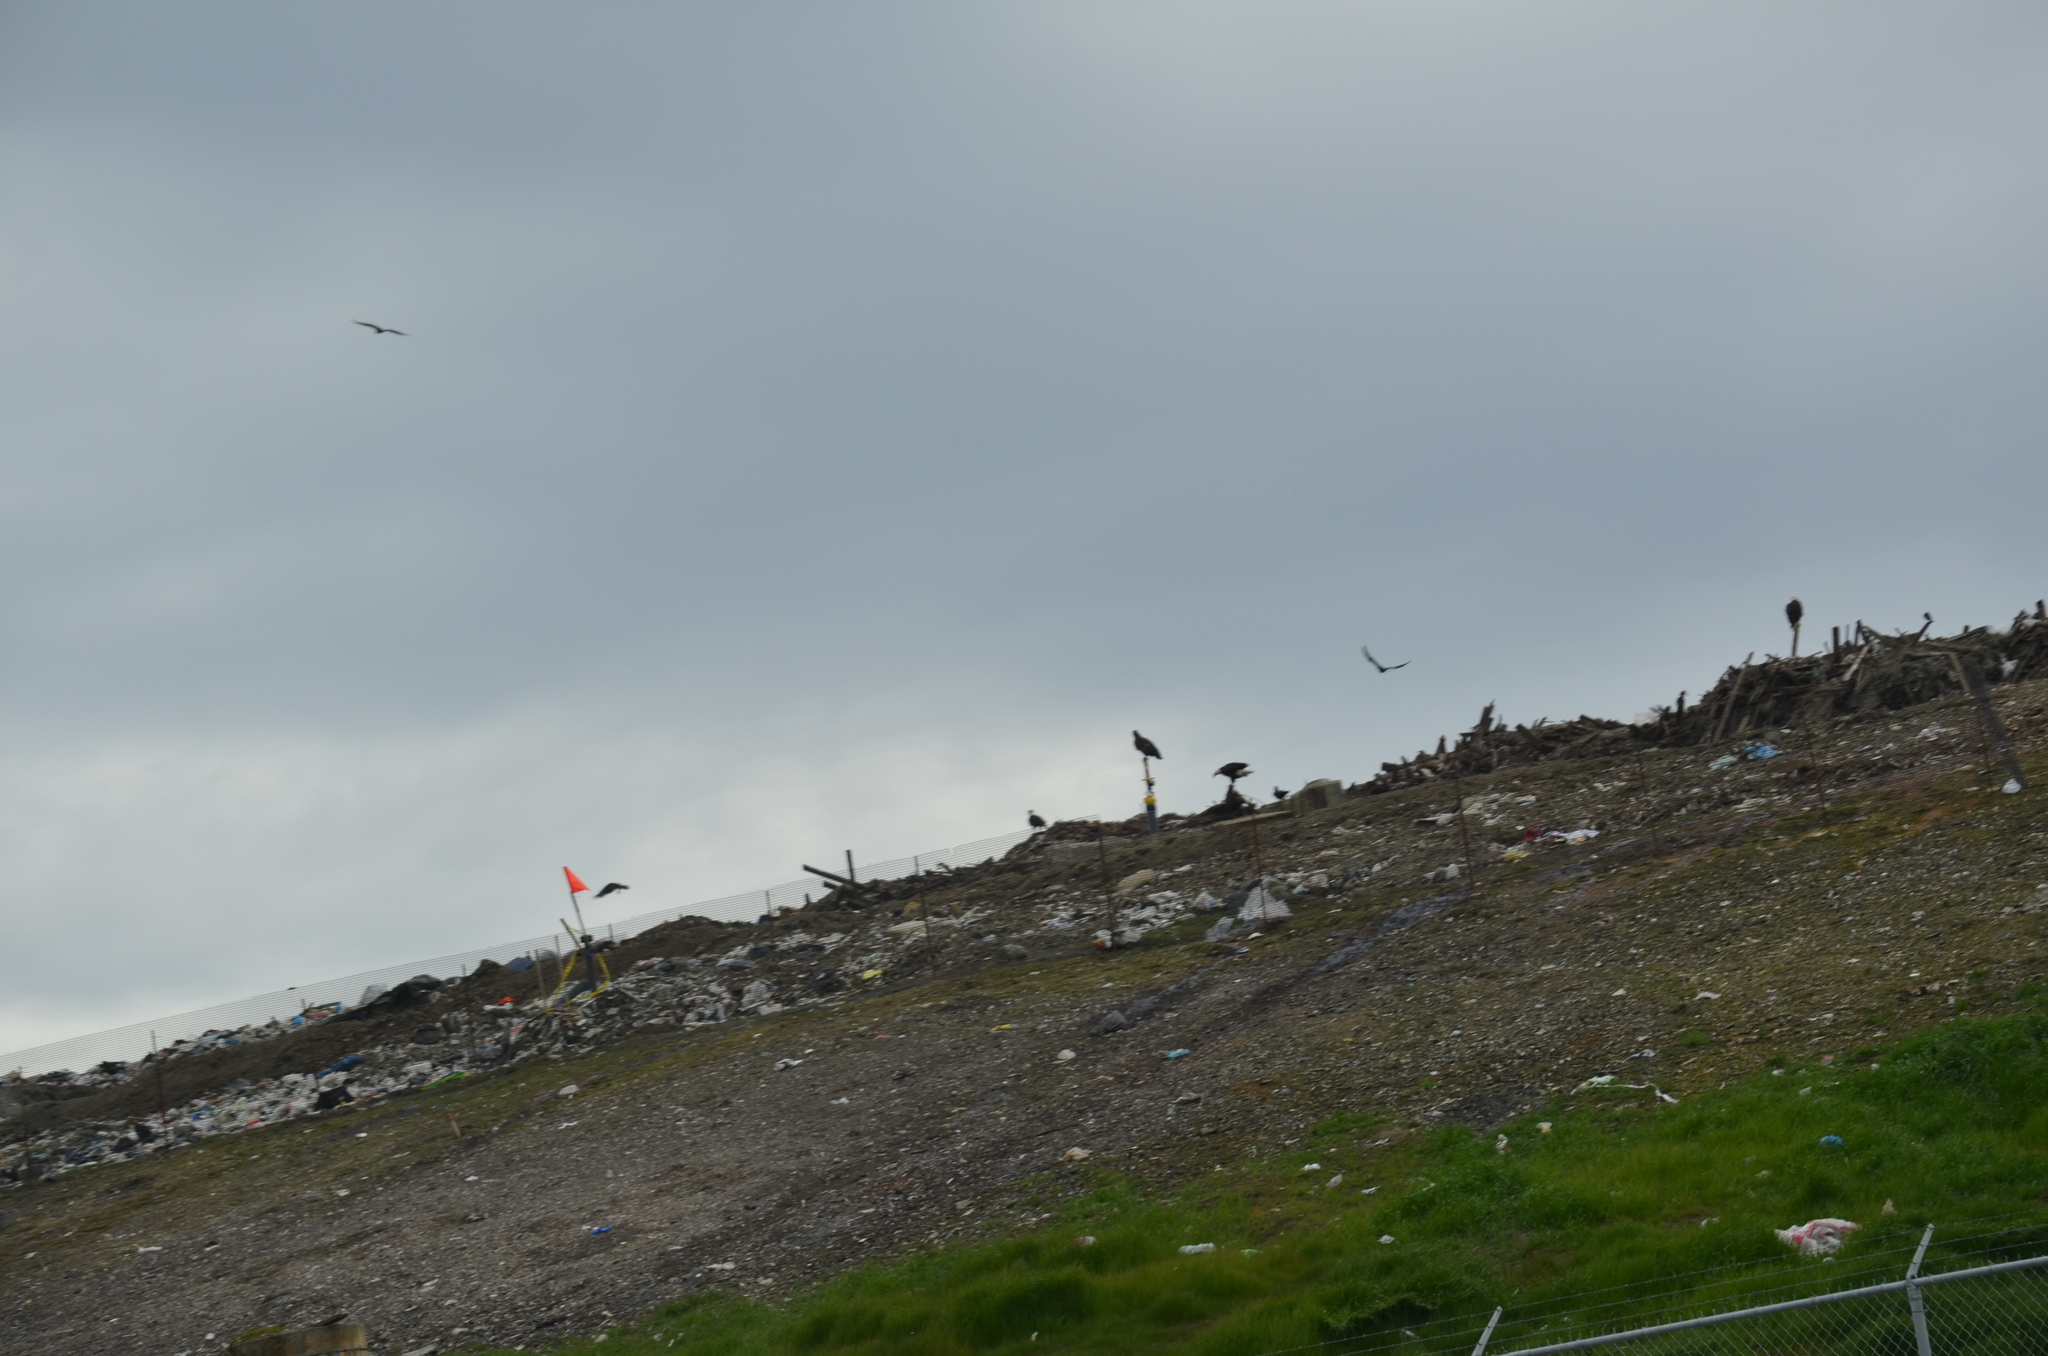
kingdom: Animalia
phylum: Chordata
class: Aves
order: Accipitriformes
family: Accipitridae
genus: Haliaeetus
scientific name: Haliaeetus leucocephalus
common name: Bald eagle
